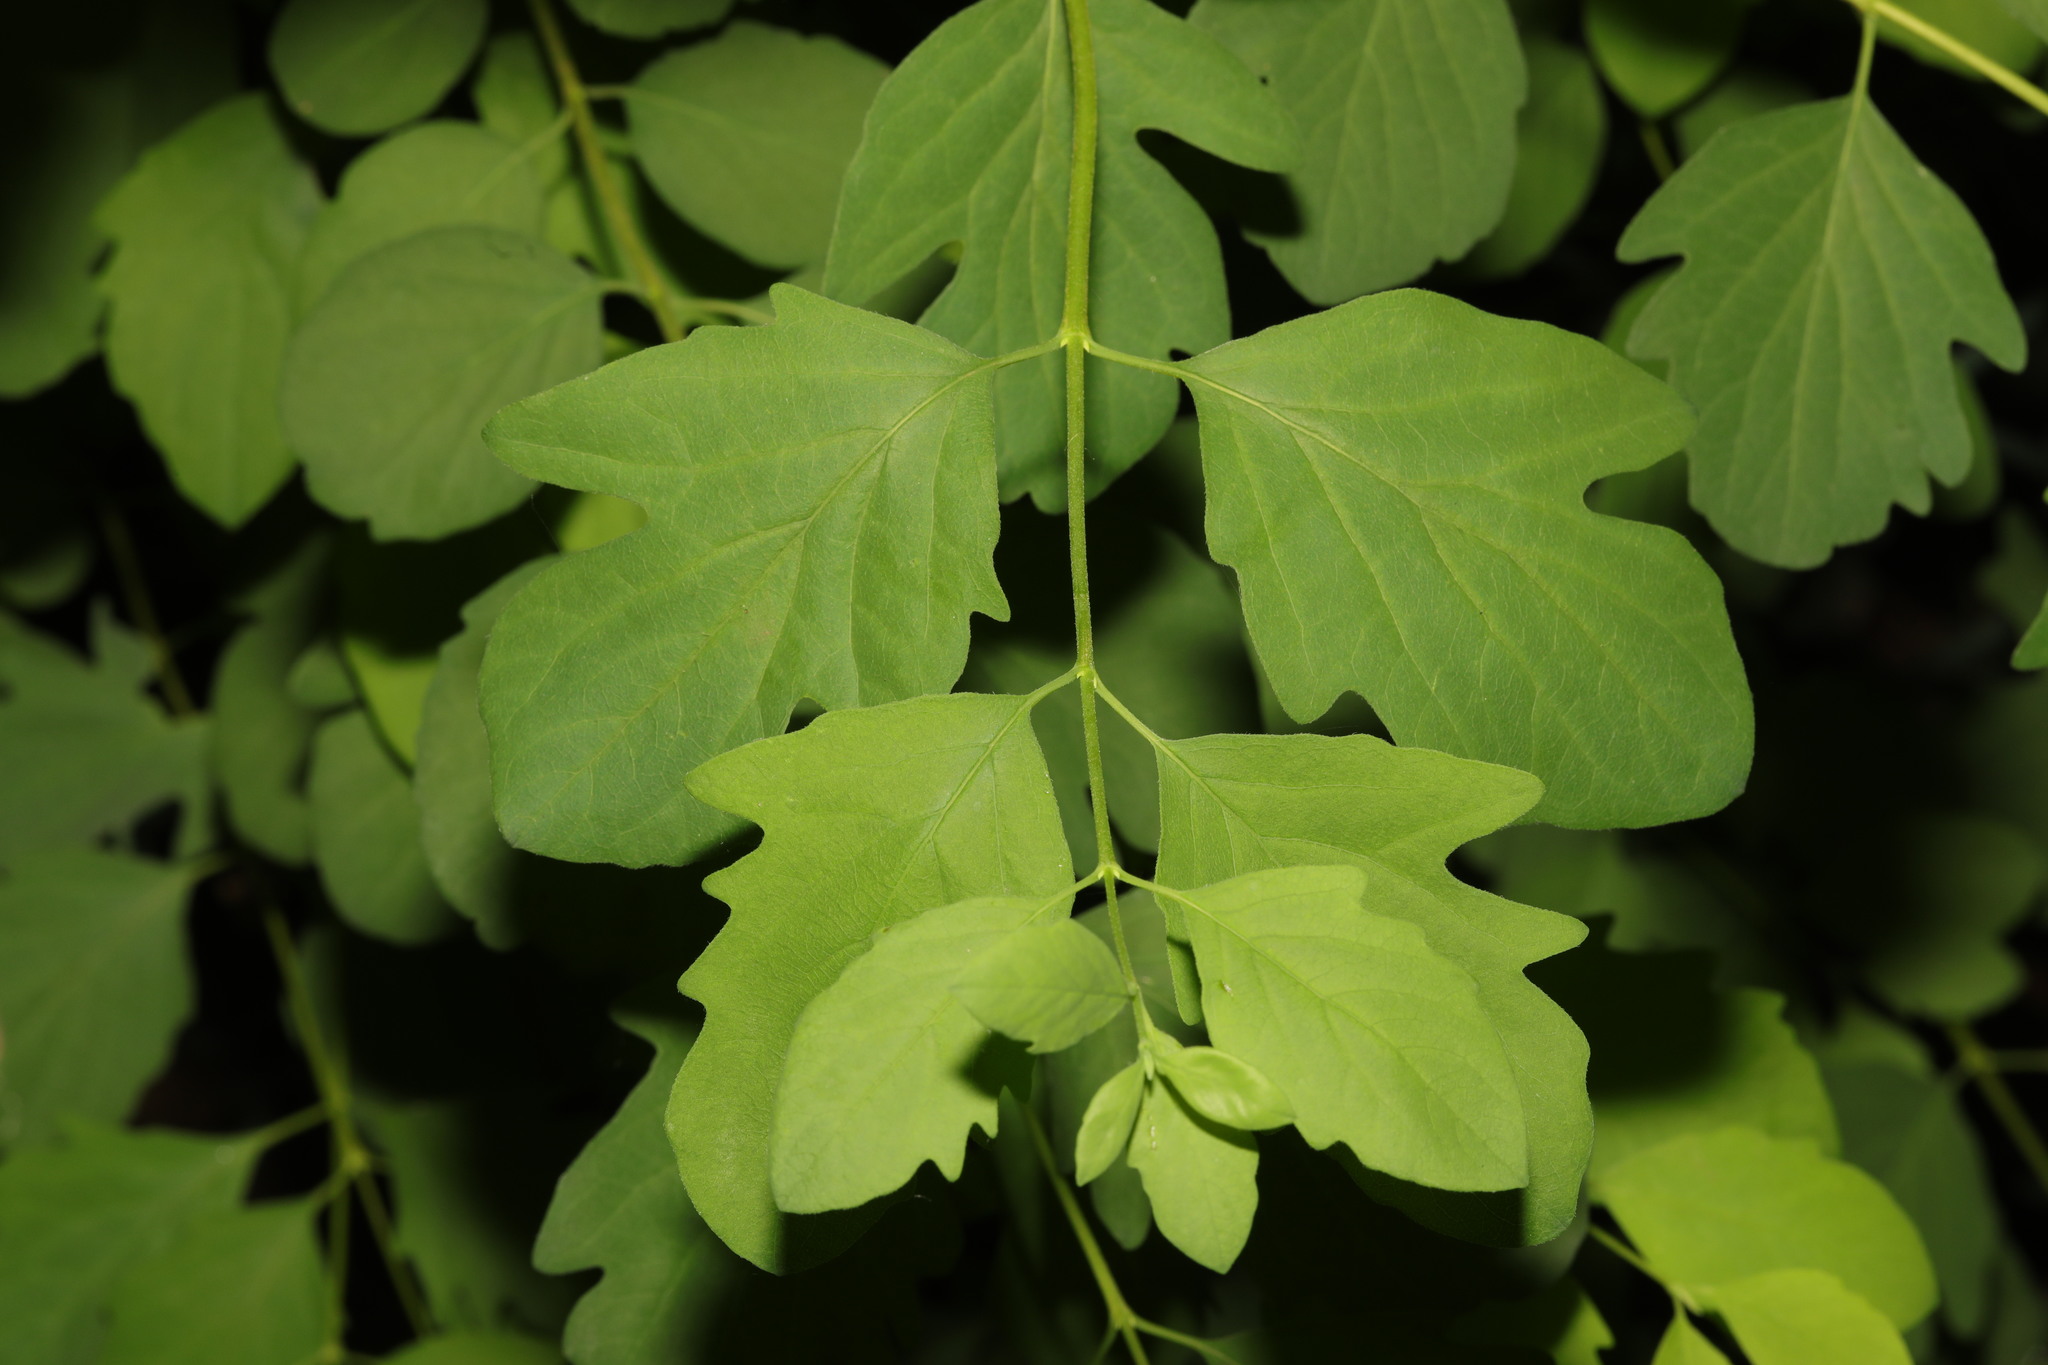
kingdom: Plantae
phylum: Tracheophyta
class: Magnoliopsida
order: Dipsacales
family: Caprifoliaceae
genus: Symphoricarpos
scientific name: Symphoricarpos albus
